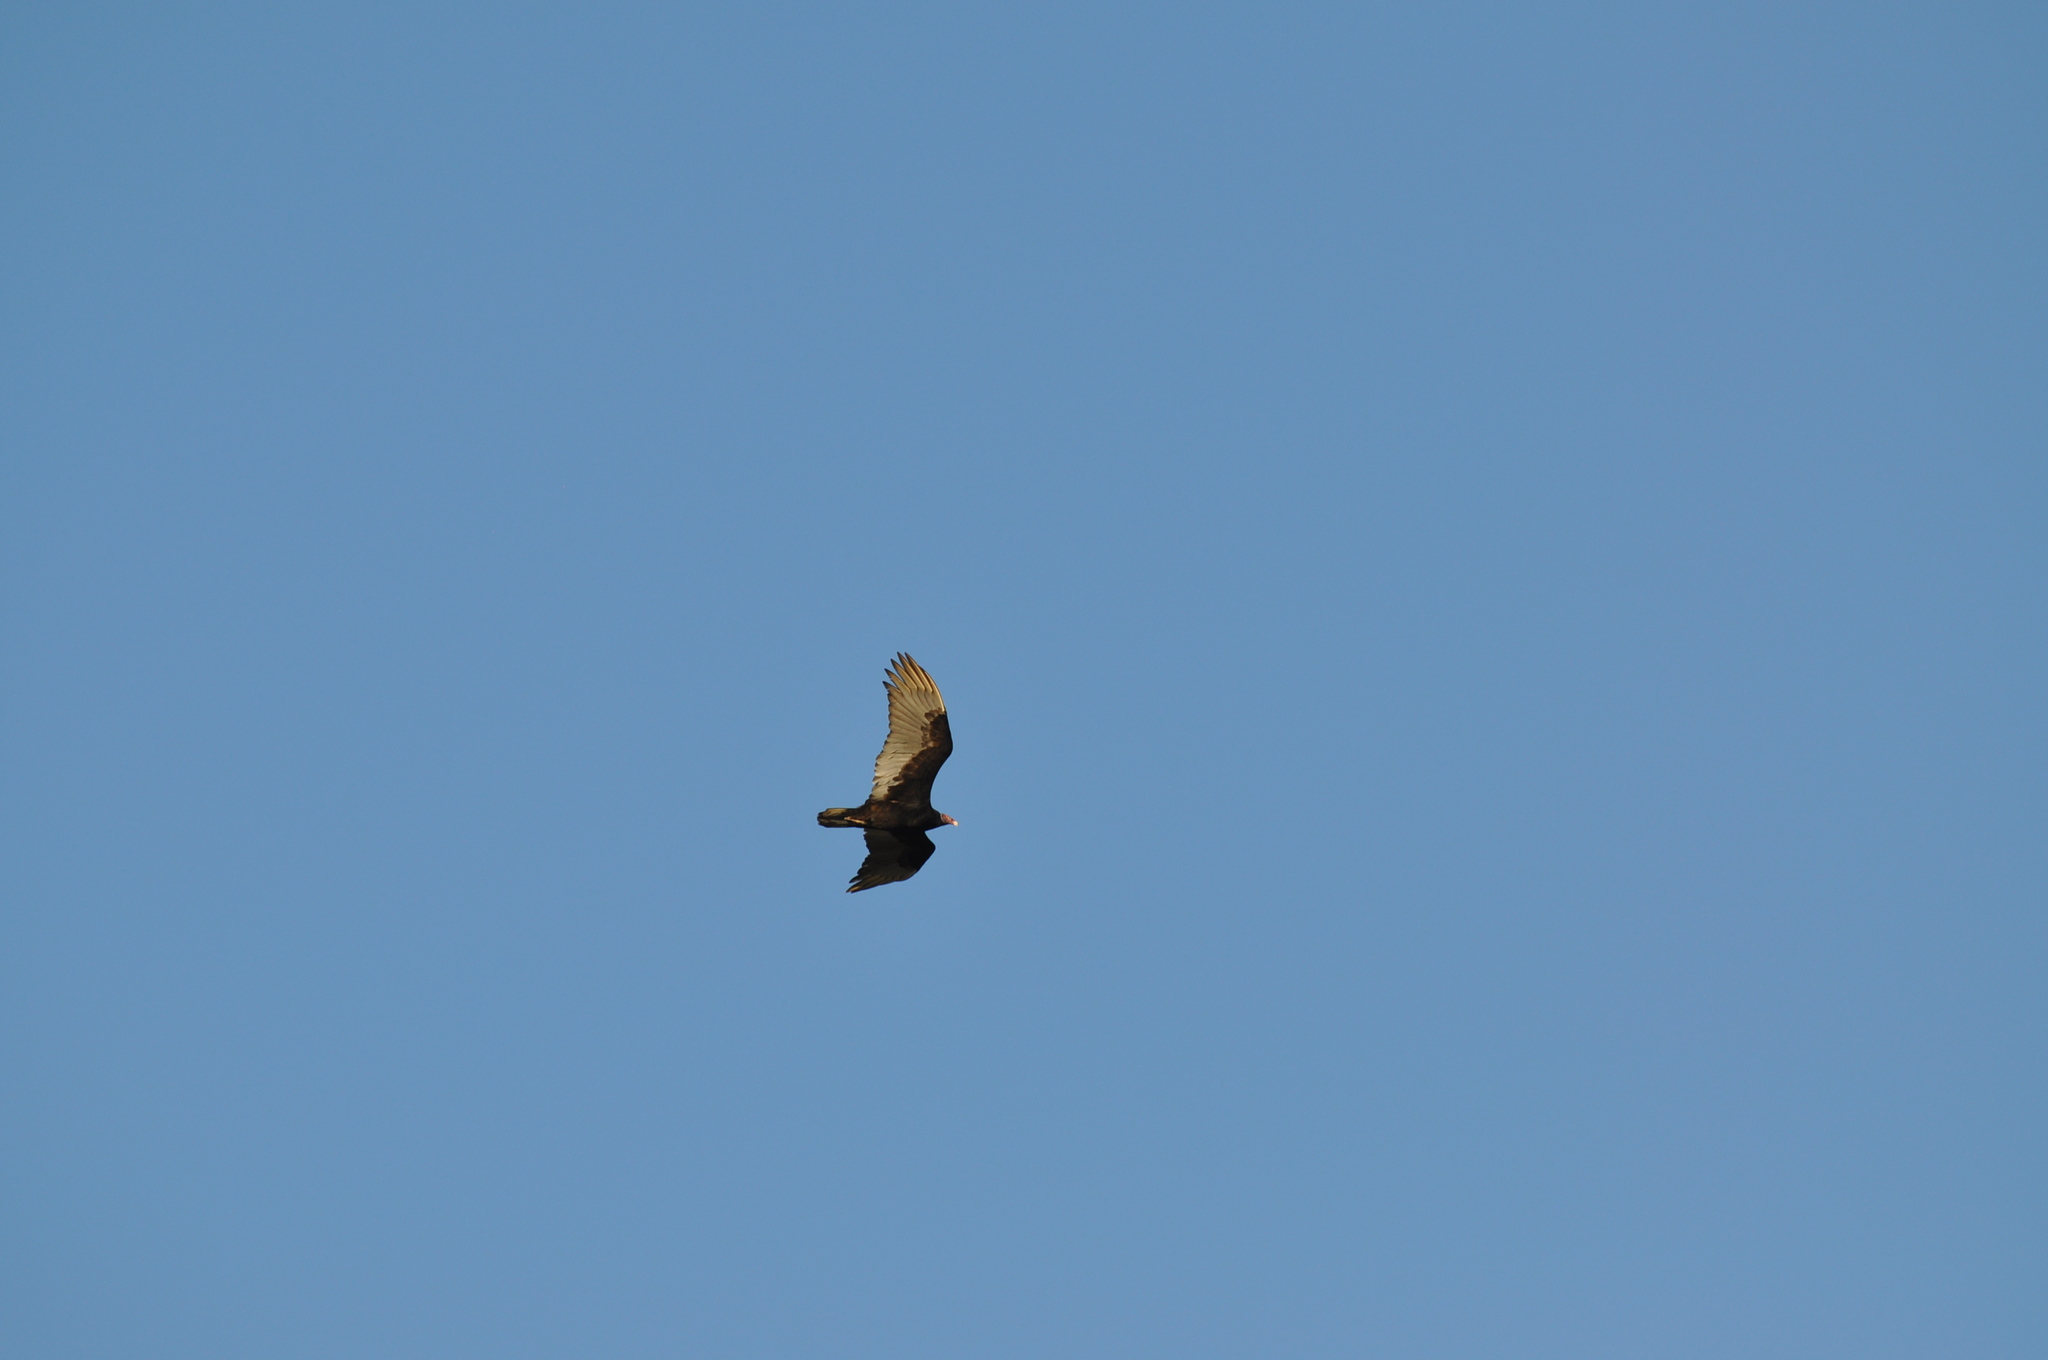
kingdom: Animalia
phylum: Chordata
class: Aves
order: Accipitriformes
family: Cathartidae
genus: Cathartes
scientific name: Cathartes aura
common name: Turkey vulture
